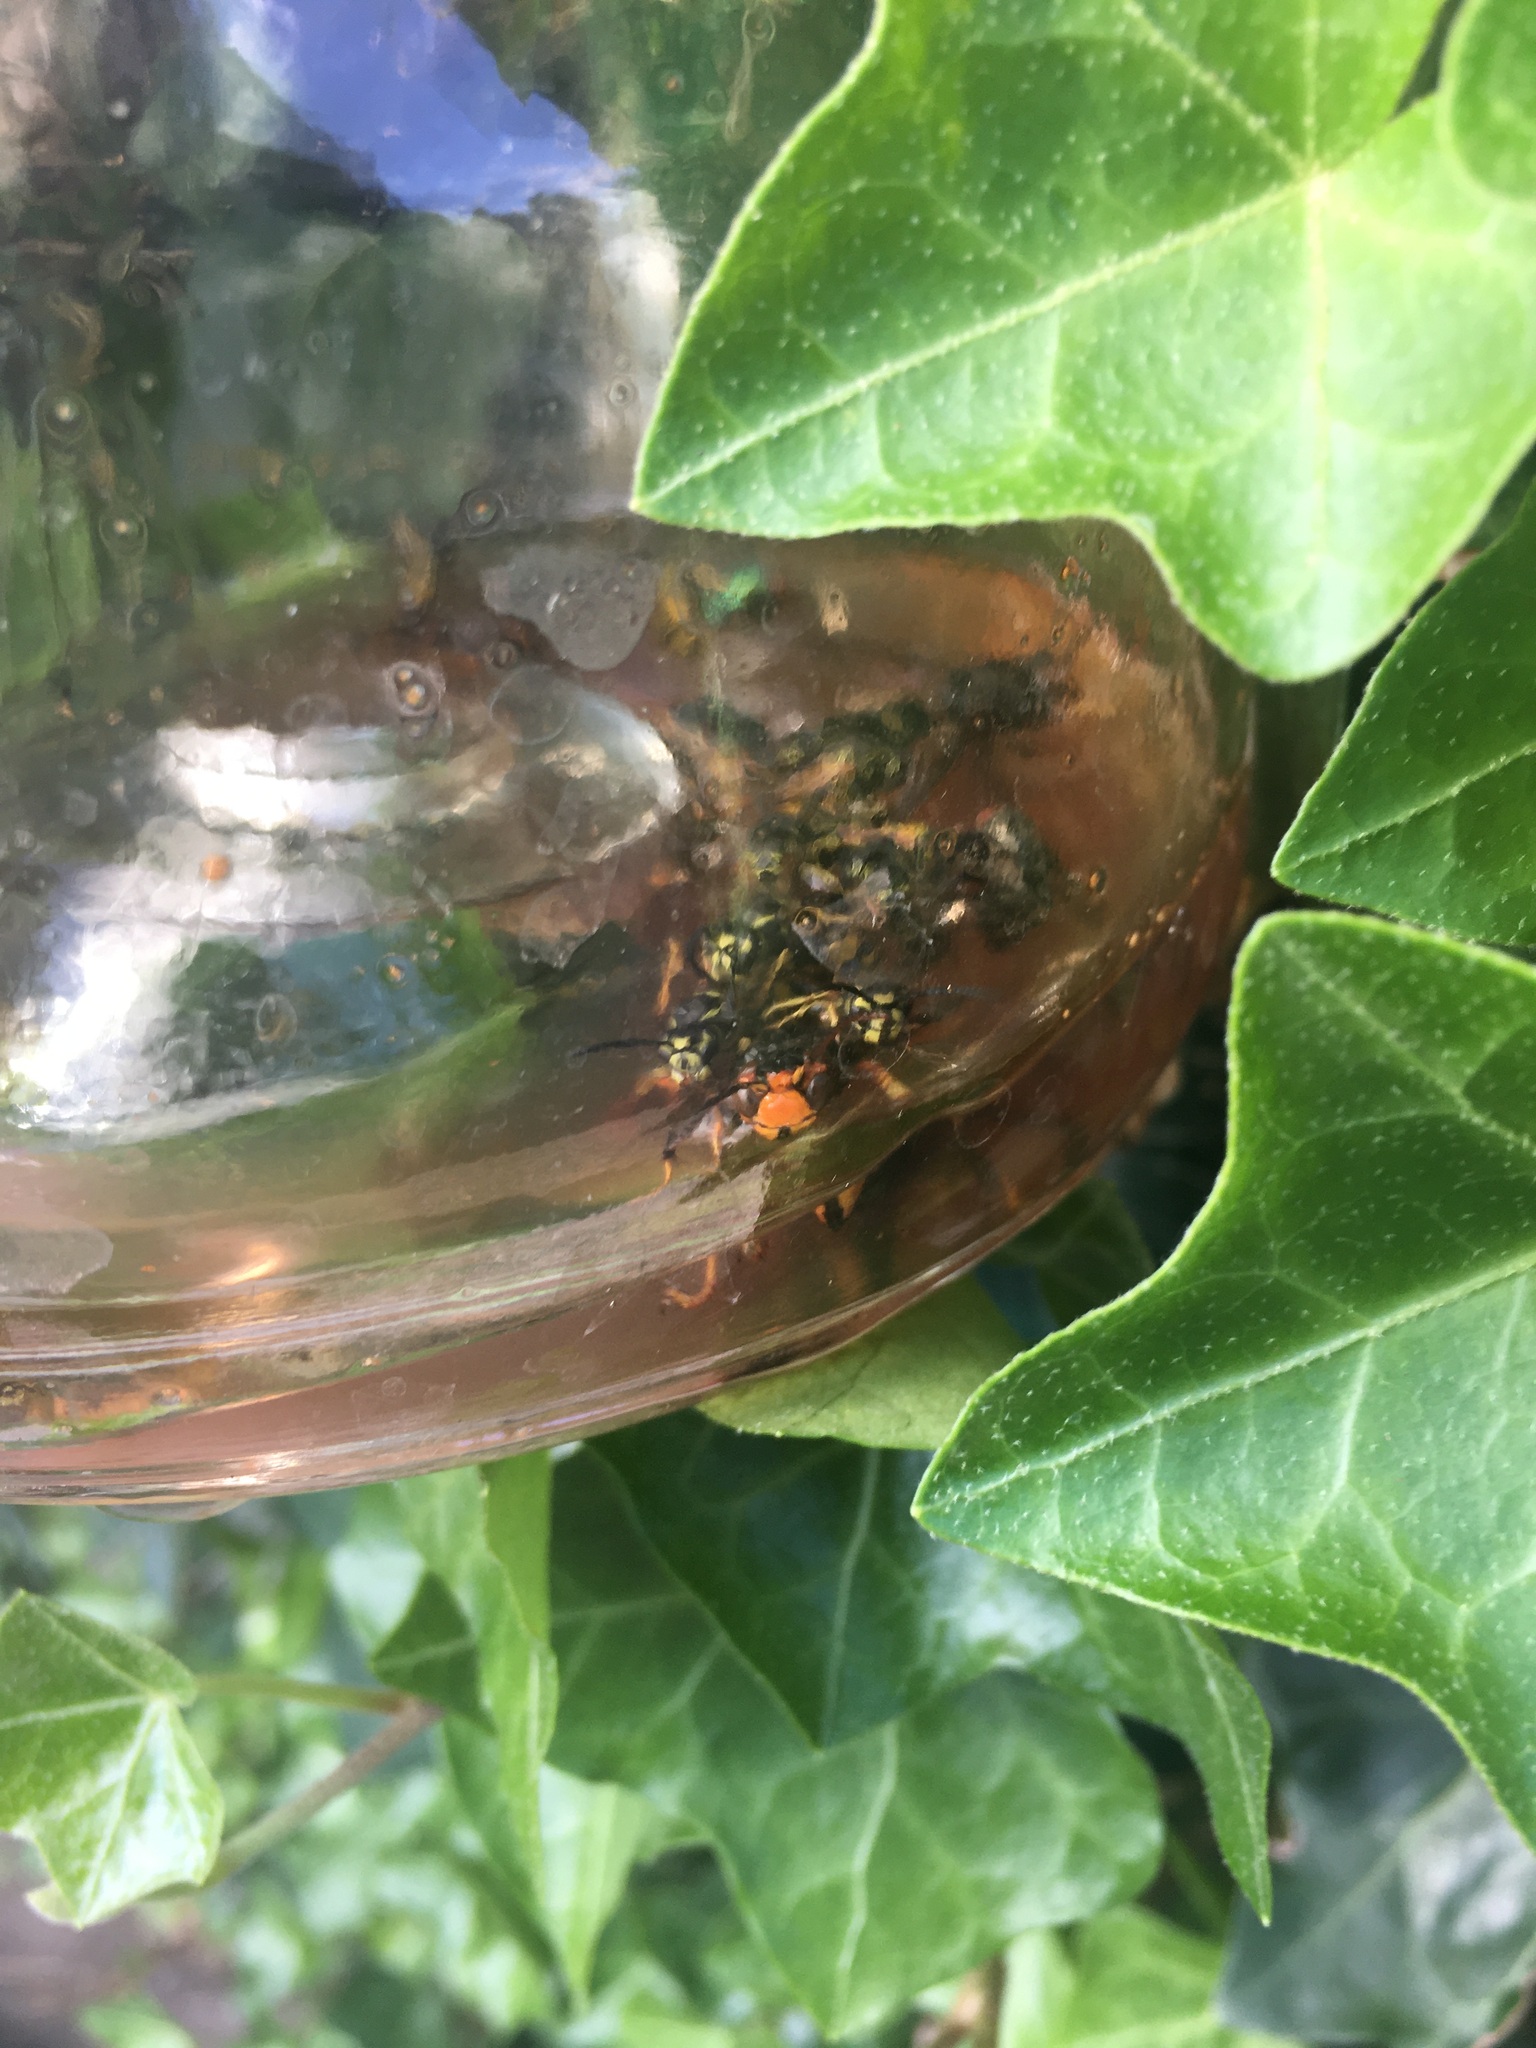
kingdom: Animalia
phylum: Arthropoda
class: Insecta
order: Hymenoptera
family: Vespidae
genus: Vespa
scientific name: Vespa velutina
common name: Asian hornet
